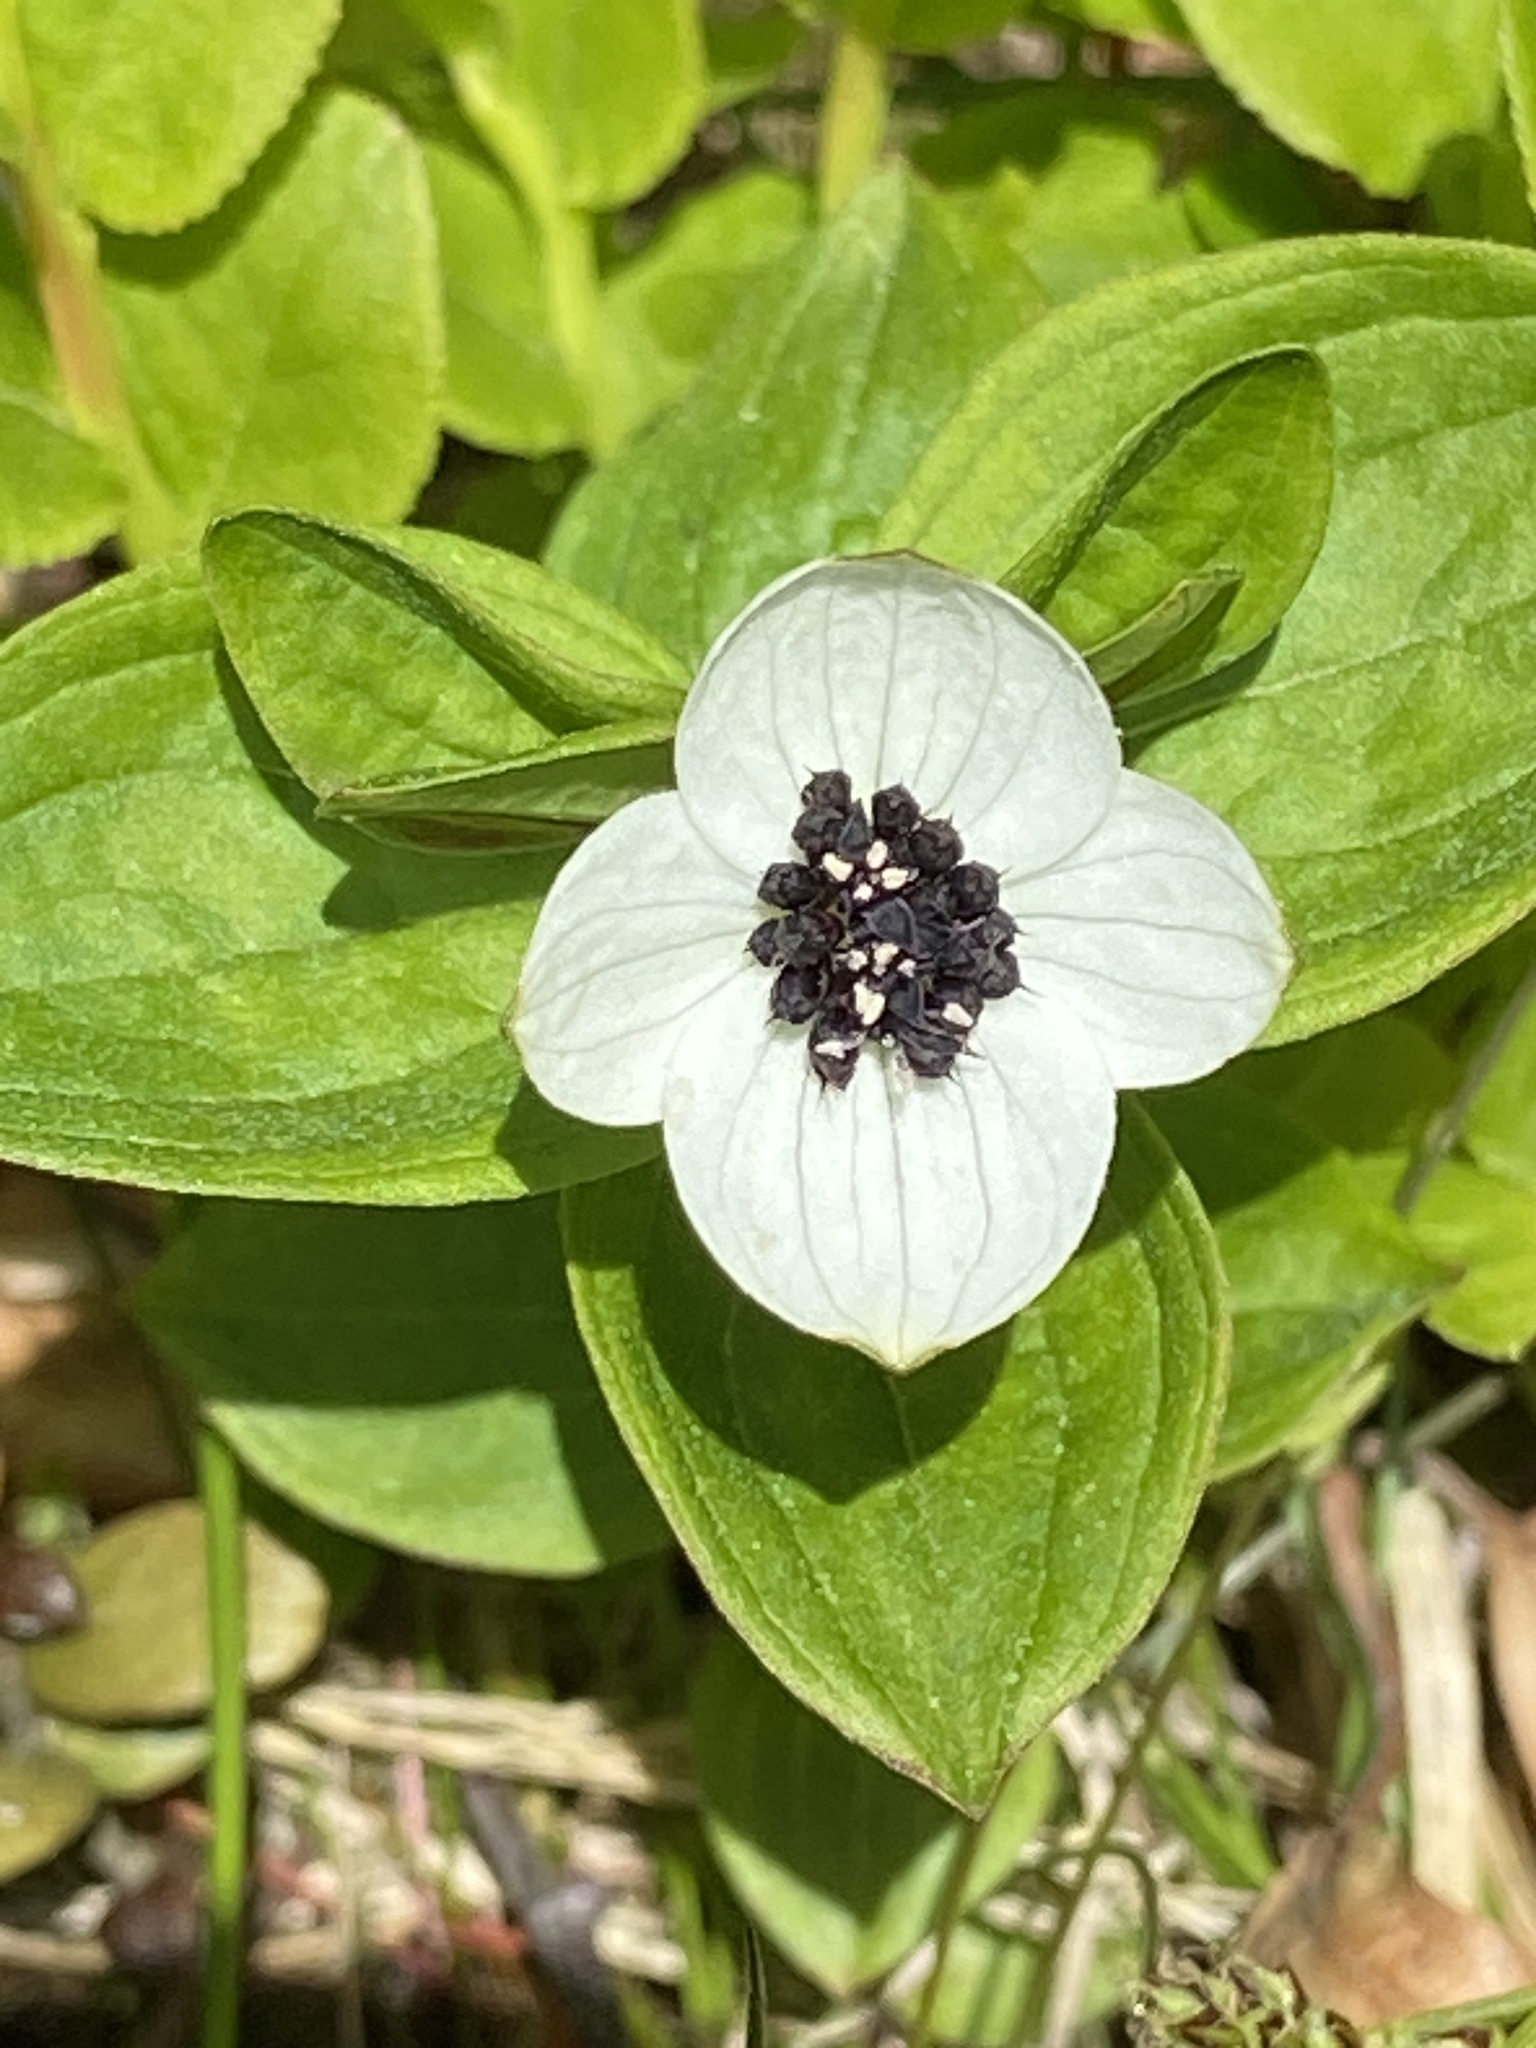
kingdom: Plantae
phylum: Tracheophyta
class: Magnoliopsida
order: Cornales
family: Cornaceae
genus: Cornus
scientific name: Cornus suecica
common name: Dwarf cornel
